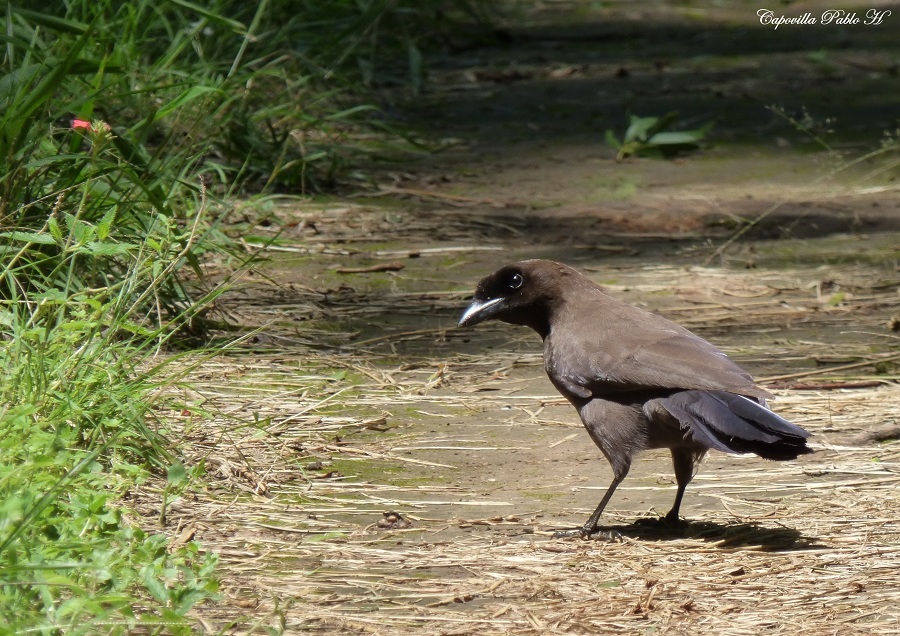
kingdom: Animalia
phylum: Chordata
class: Aves
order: Passeriformes
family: Corvidae
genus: Cyanocorax
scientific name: Cyanocorax cyanomelas
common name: Purplish jay
